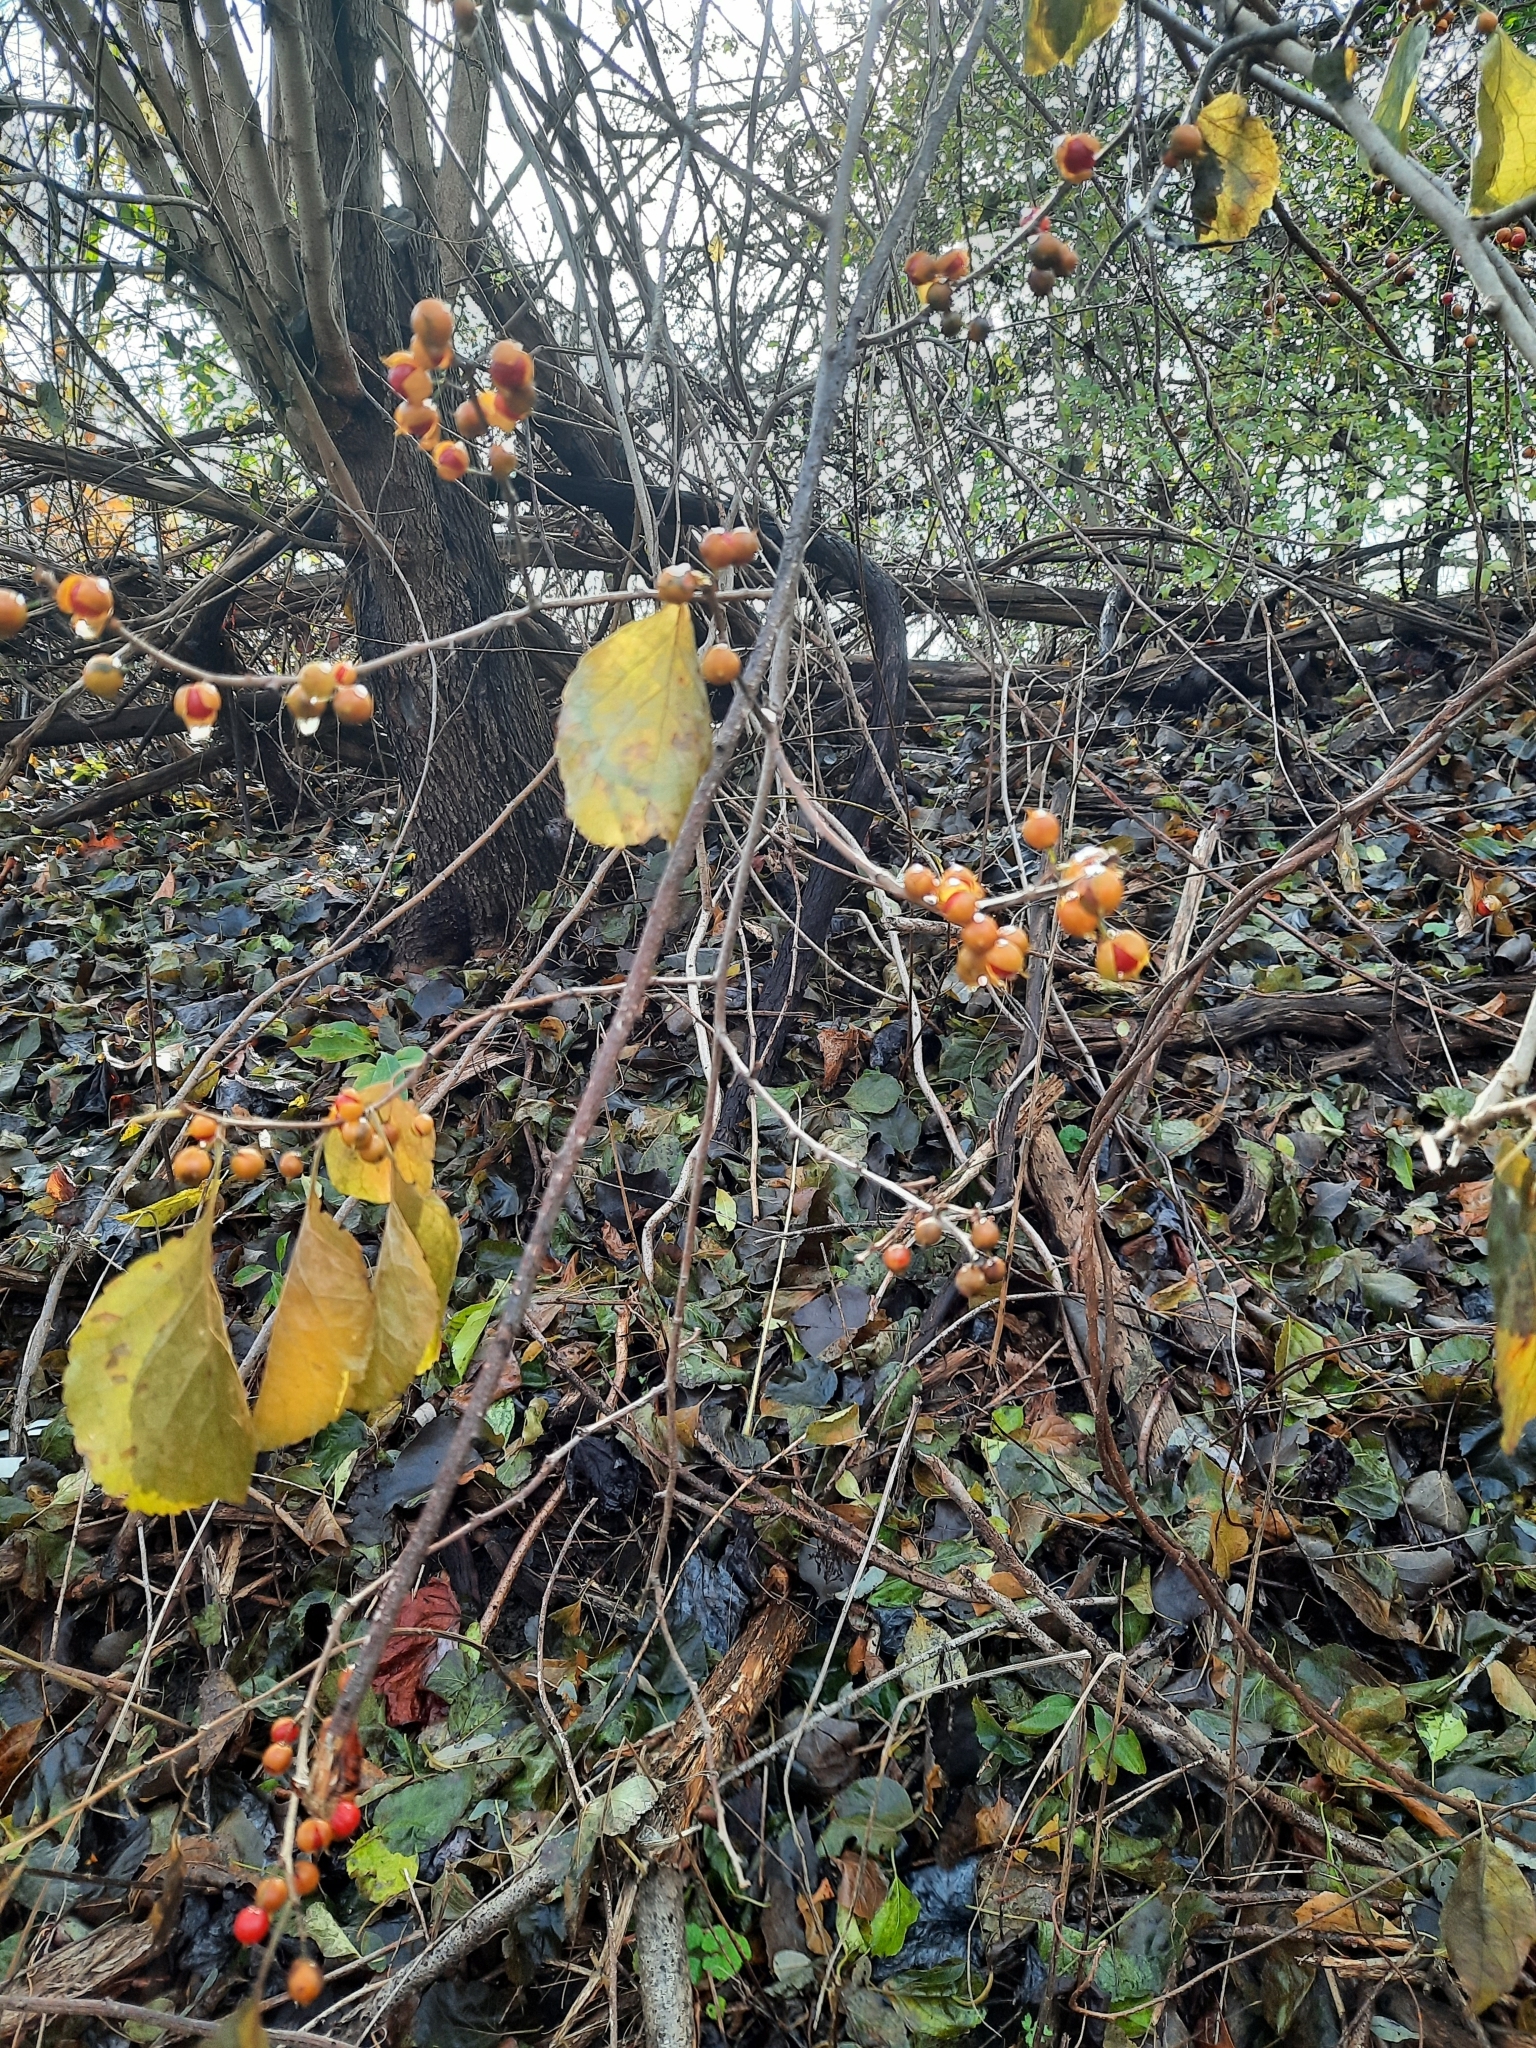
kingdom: Plantae
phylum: Tracheophyta
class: Magnoliopsida
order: Celastrales
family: Celastraceae
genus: Celastrus
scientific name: Celastrus orbiculatus
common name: Oriental bittersweet
